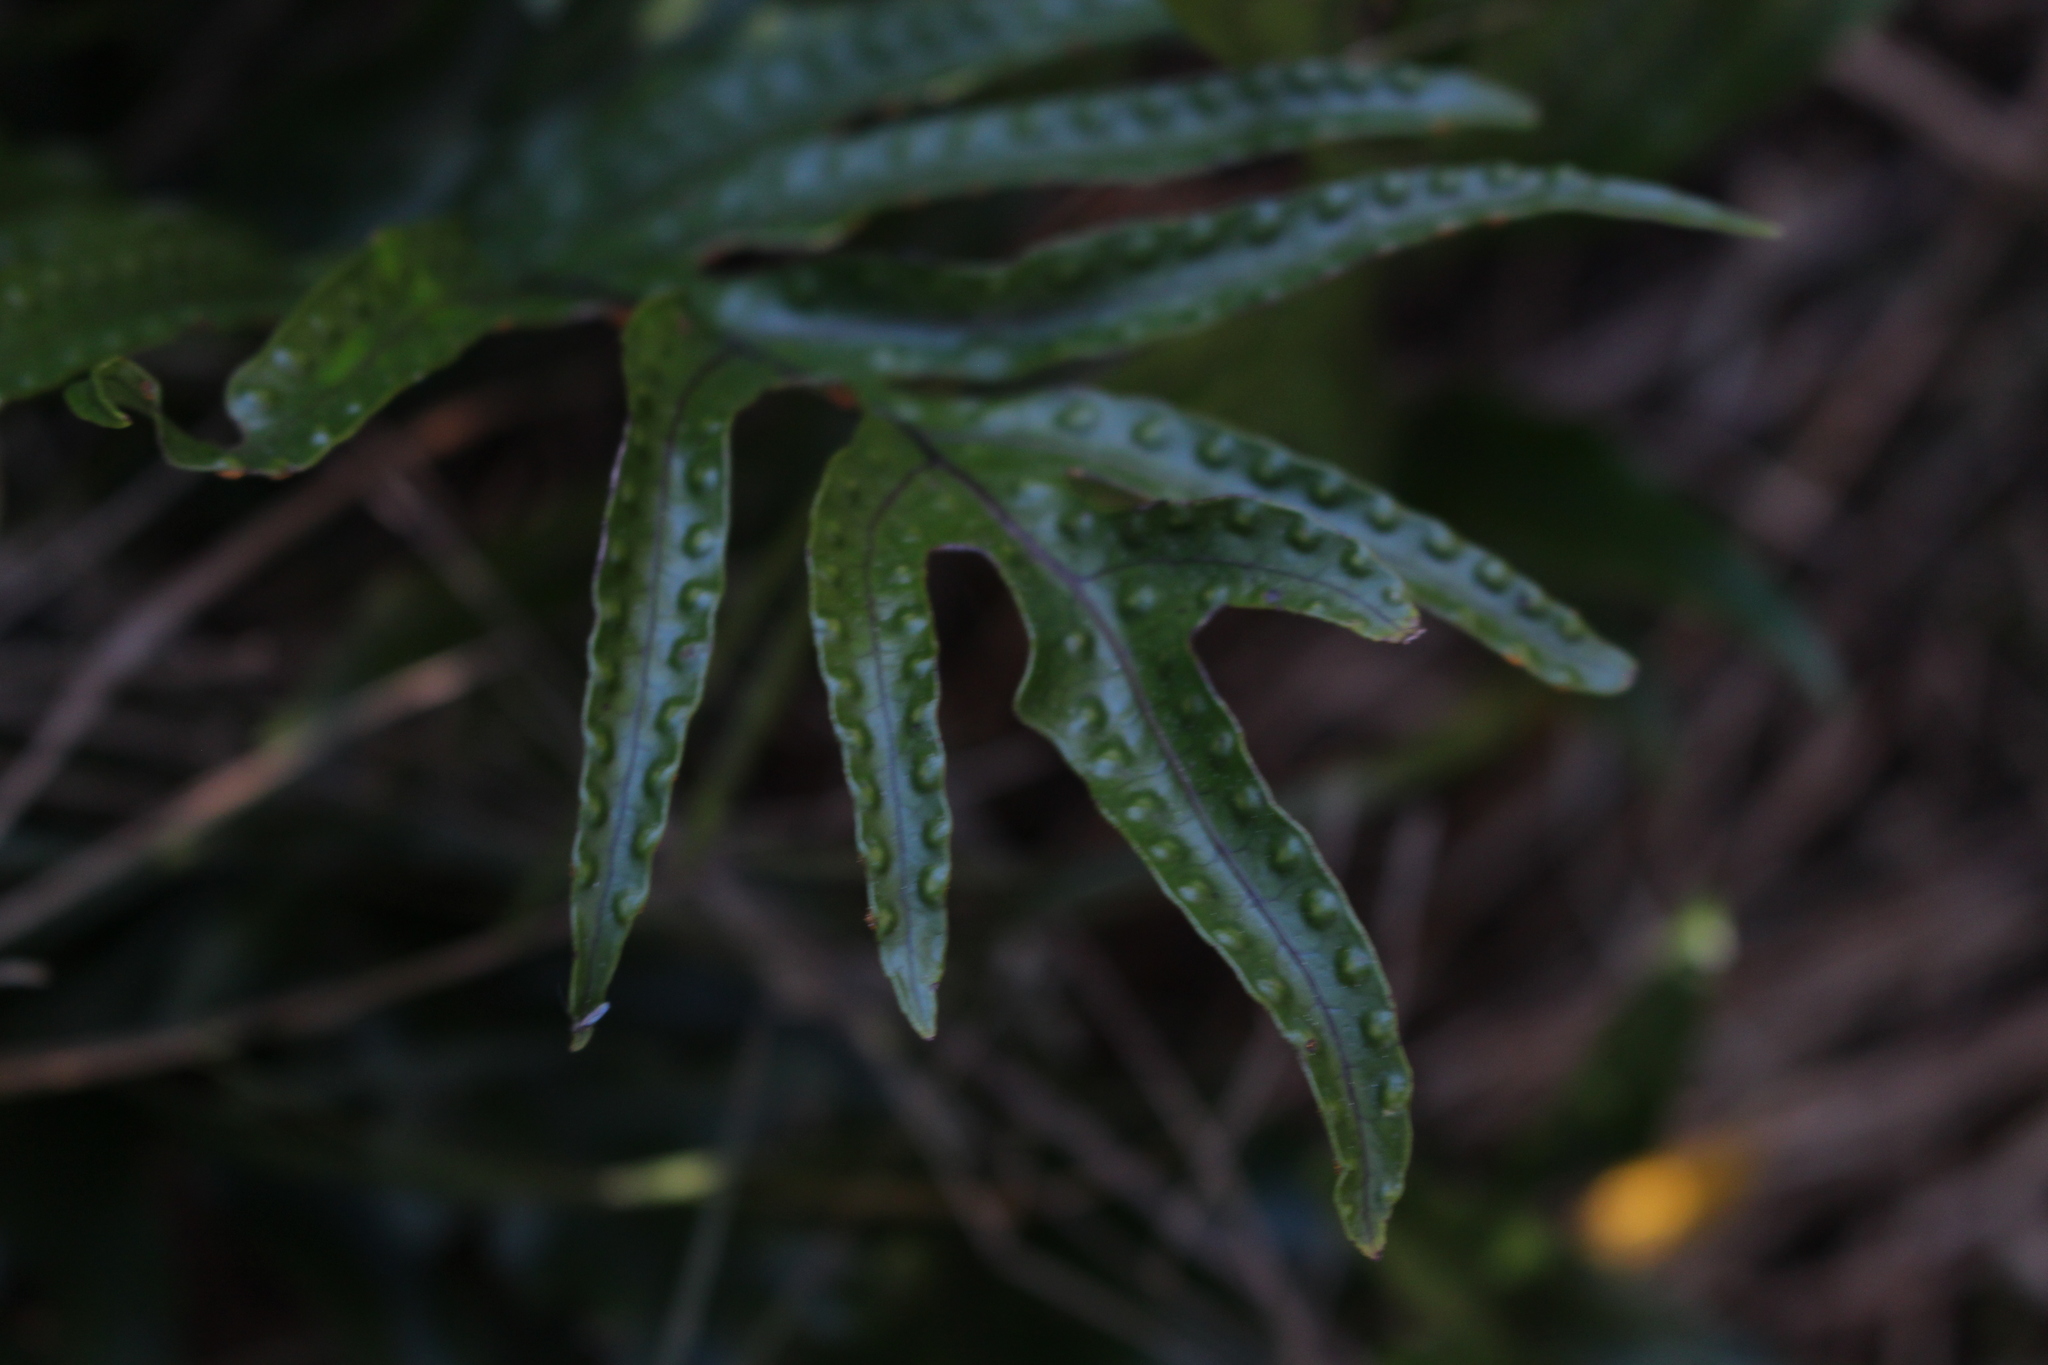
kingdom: Plantae
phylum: Tracheophyta
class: Polypodiopsida
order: Polypodiales
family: Polypodiaceae
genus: Lecanopteris
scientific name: Lecanopteris pustulata
